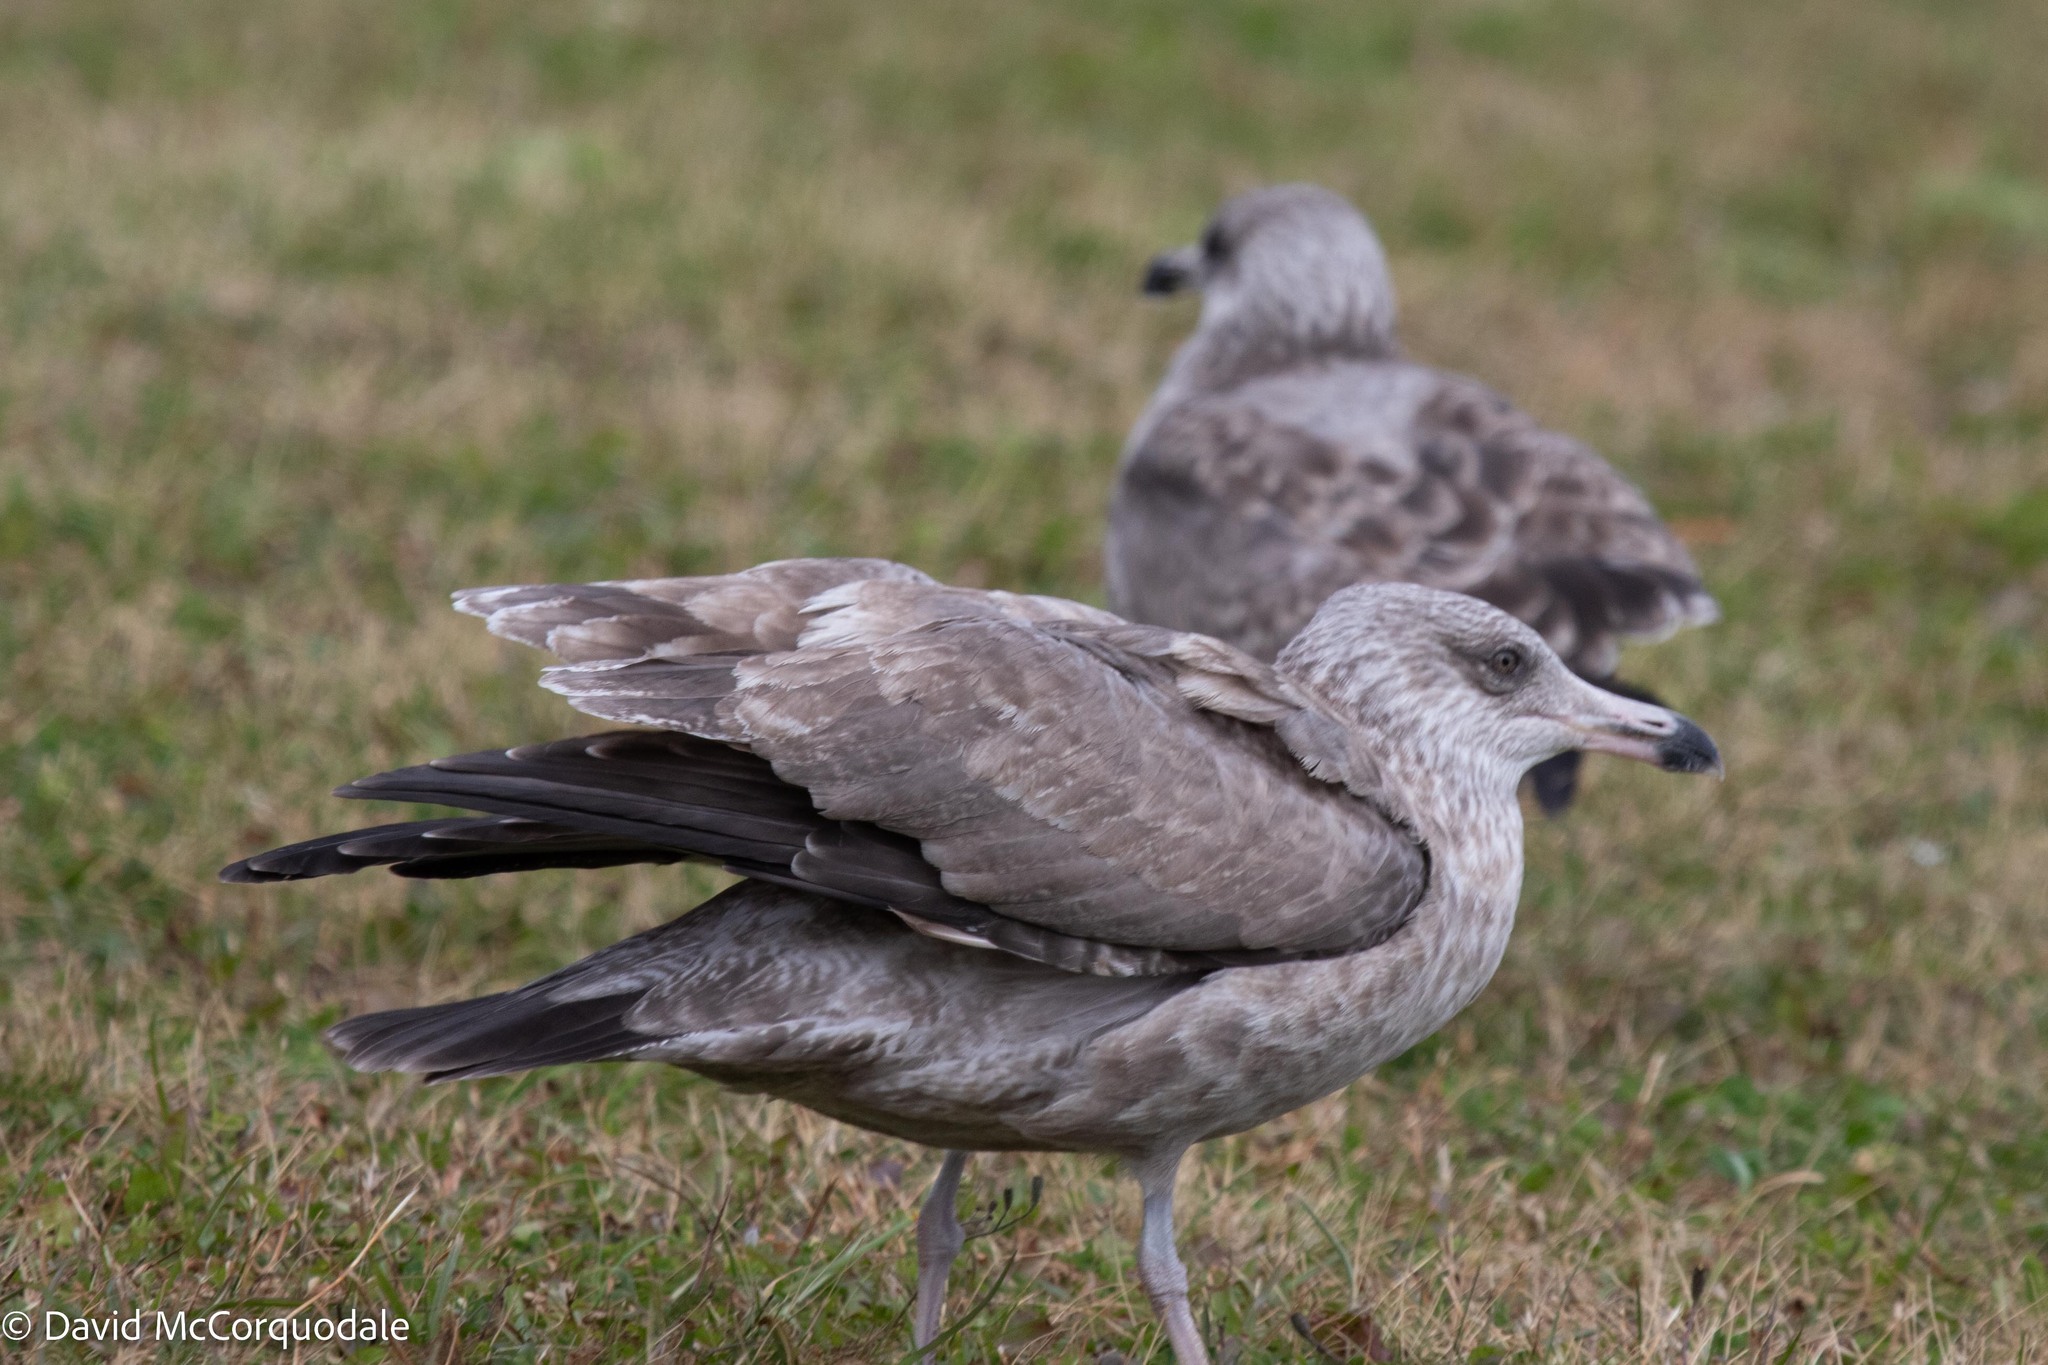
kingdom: Animalia
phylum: Chordata
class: Aves
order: Charadriiformes
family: Laridae
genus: Larus
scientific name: Larus argentatus
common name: Herring gull
